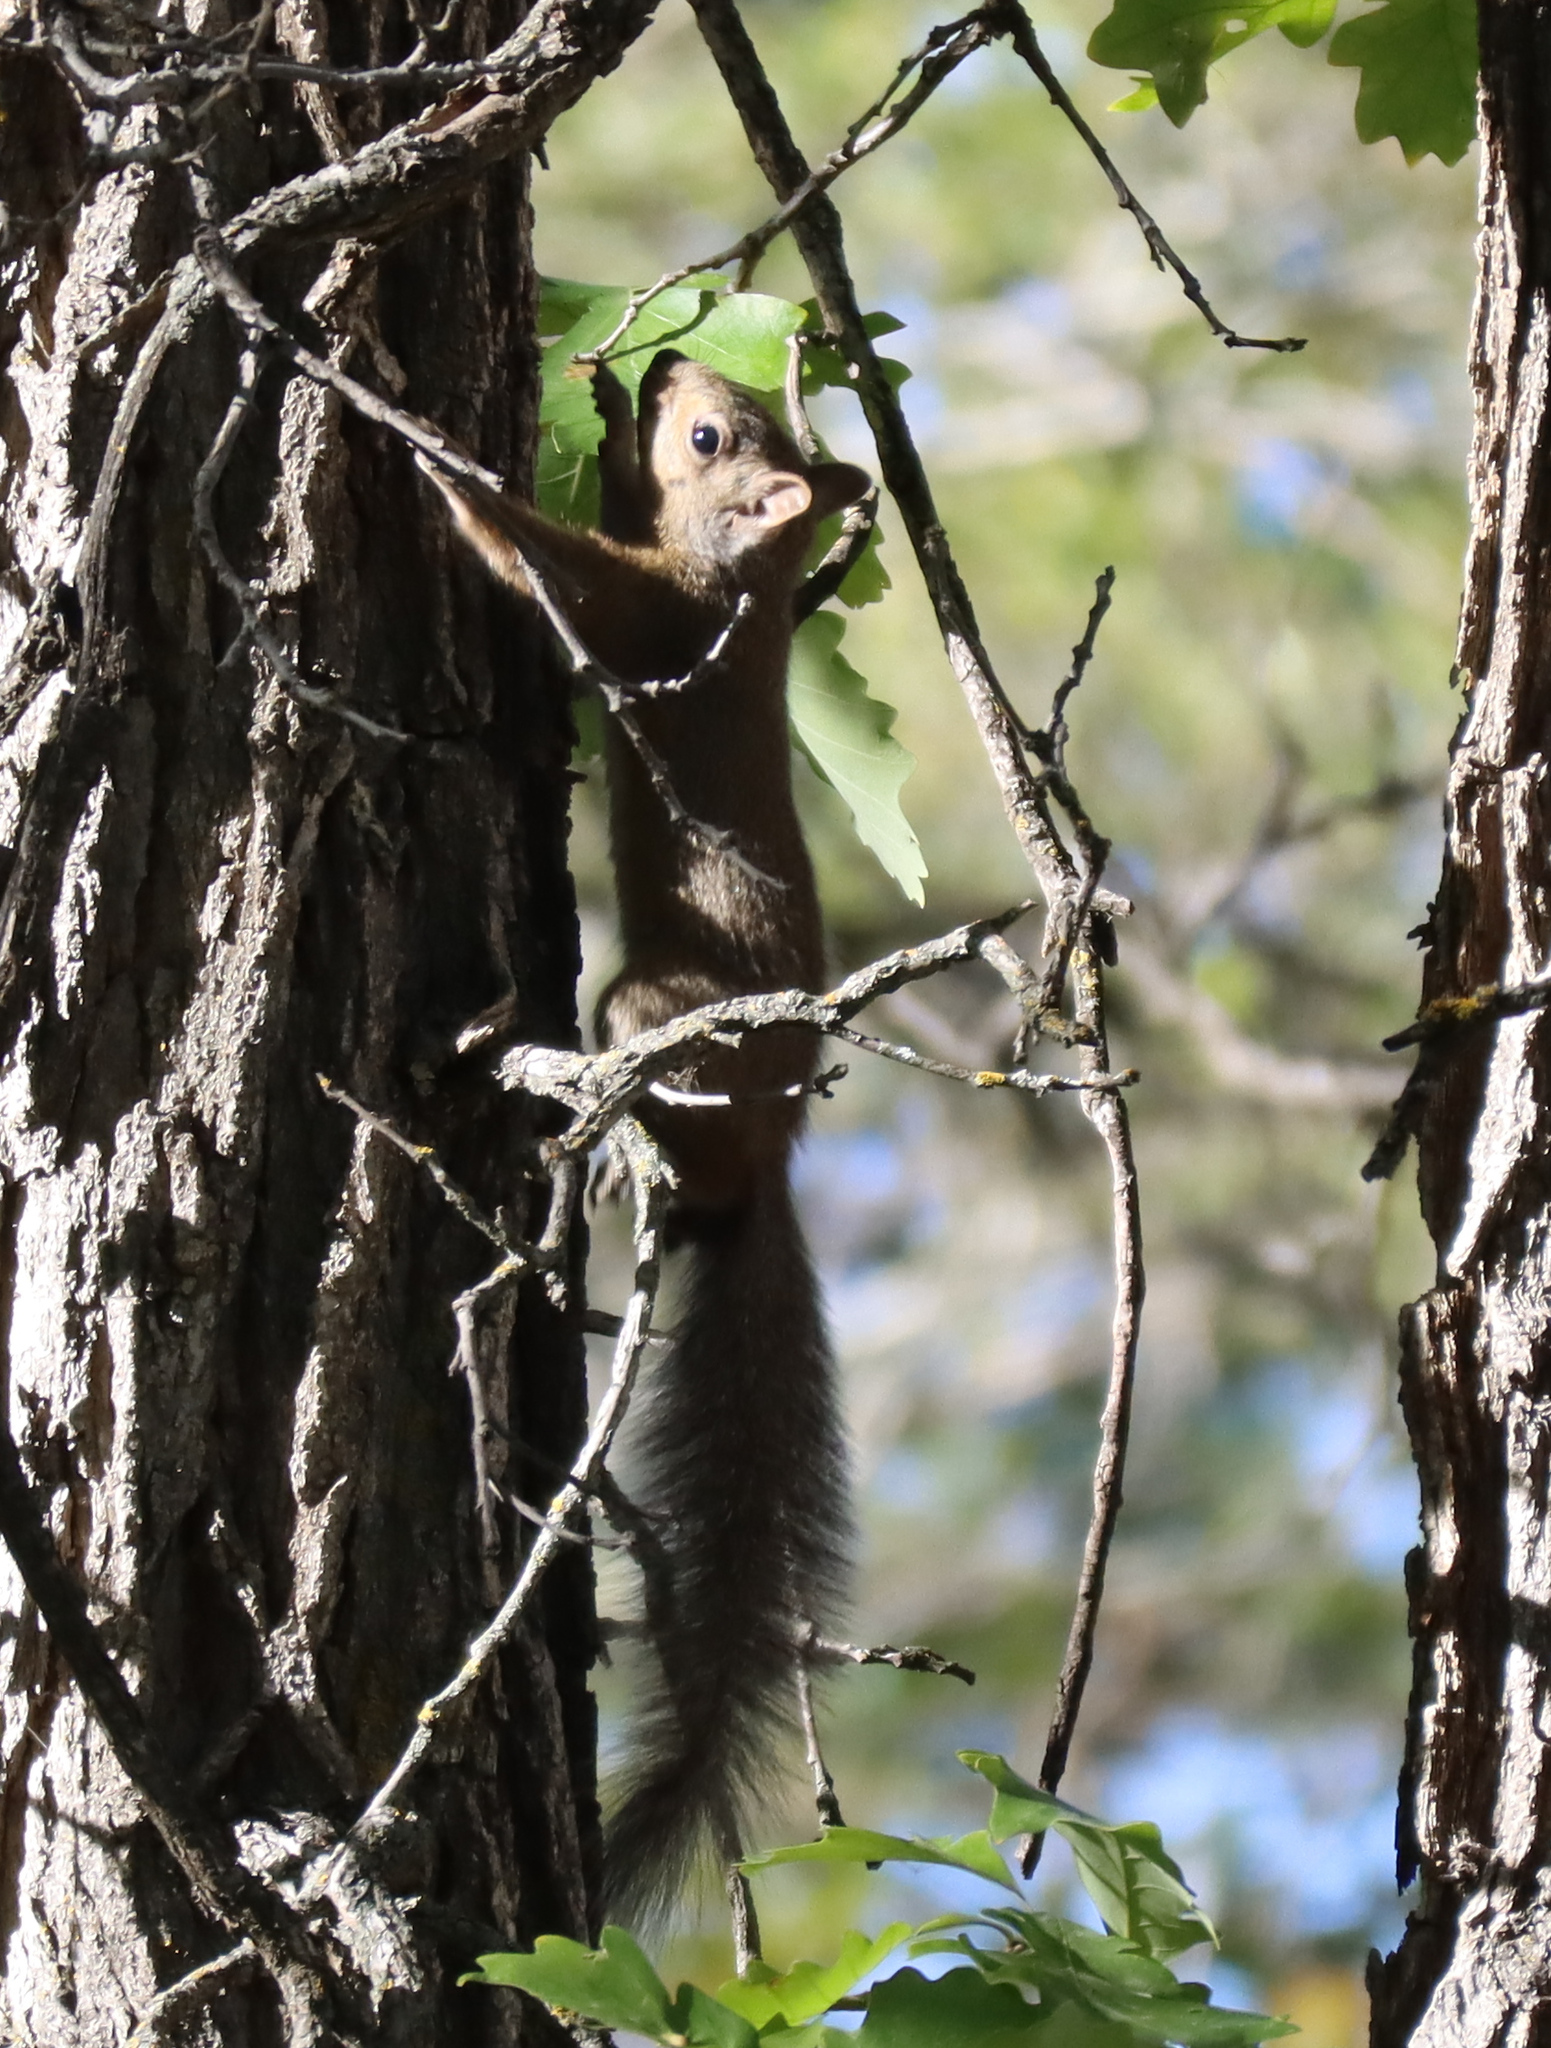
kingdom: Animalia
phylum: Chordata
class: Mammalia
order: Rodentia
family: Sciuridae
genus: Sciurus
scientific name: Sciurus carolinensis
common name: Eastern gray squirrel
